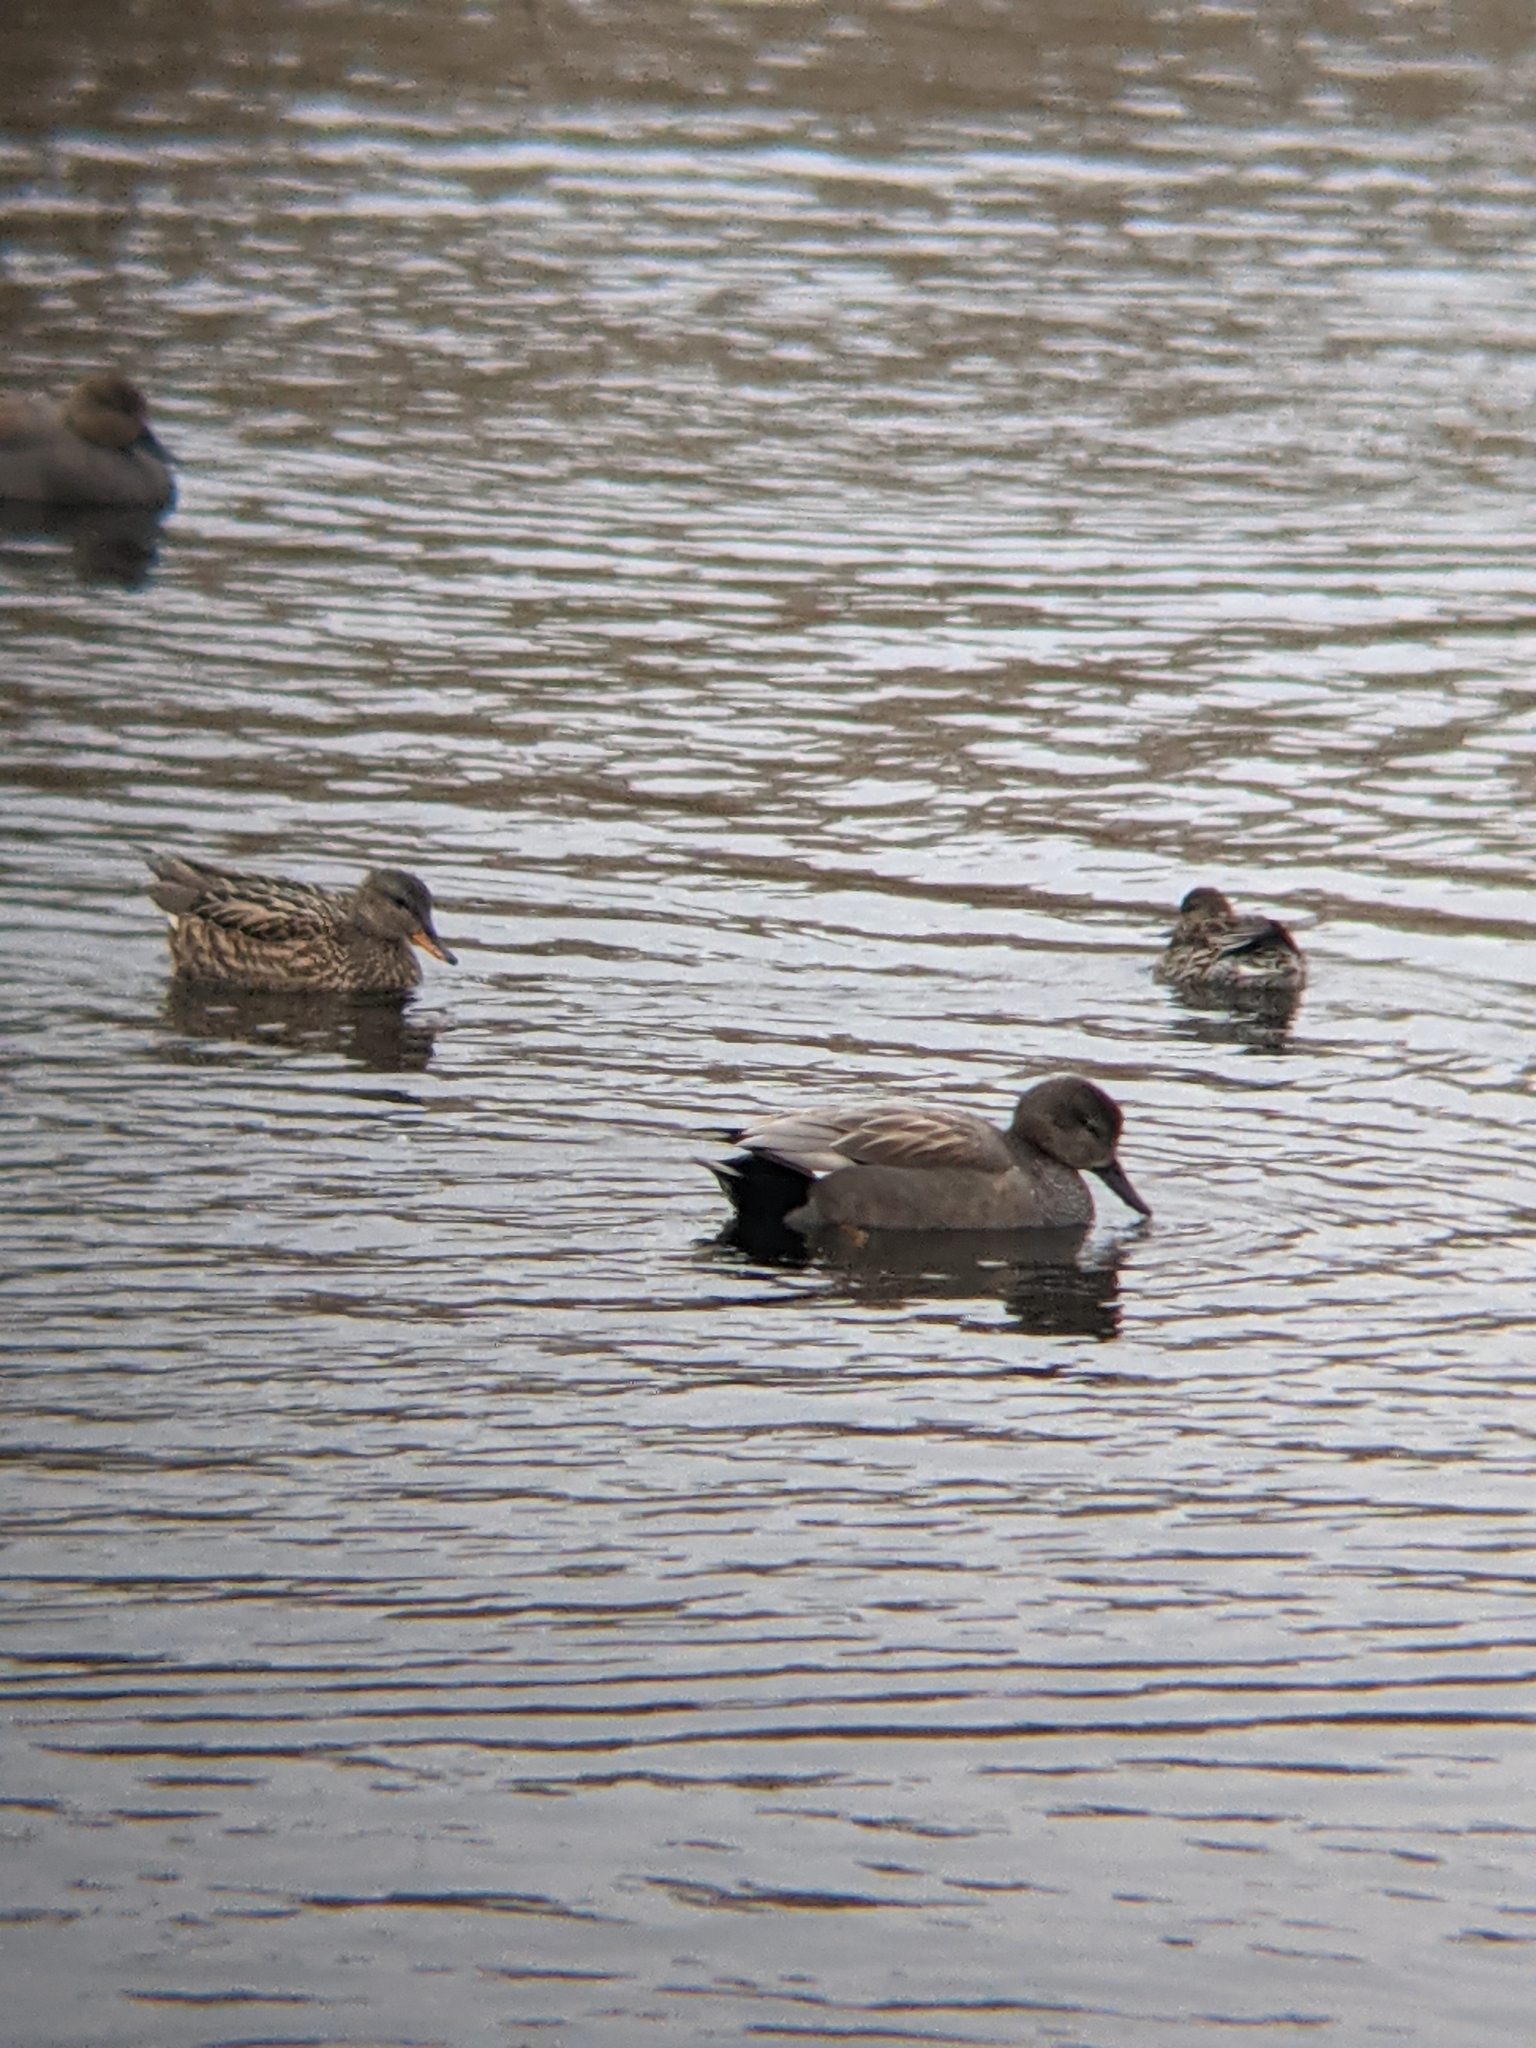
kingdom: Animalia
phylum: Chordata
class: Aves
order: Anseriformes
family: Anatidae
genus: Mareca
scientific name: Mareca strepera
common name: Gadwall
